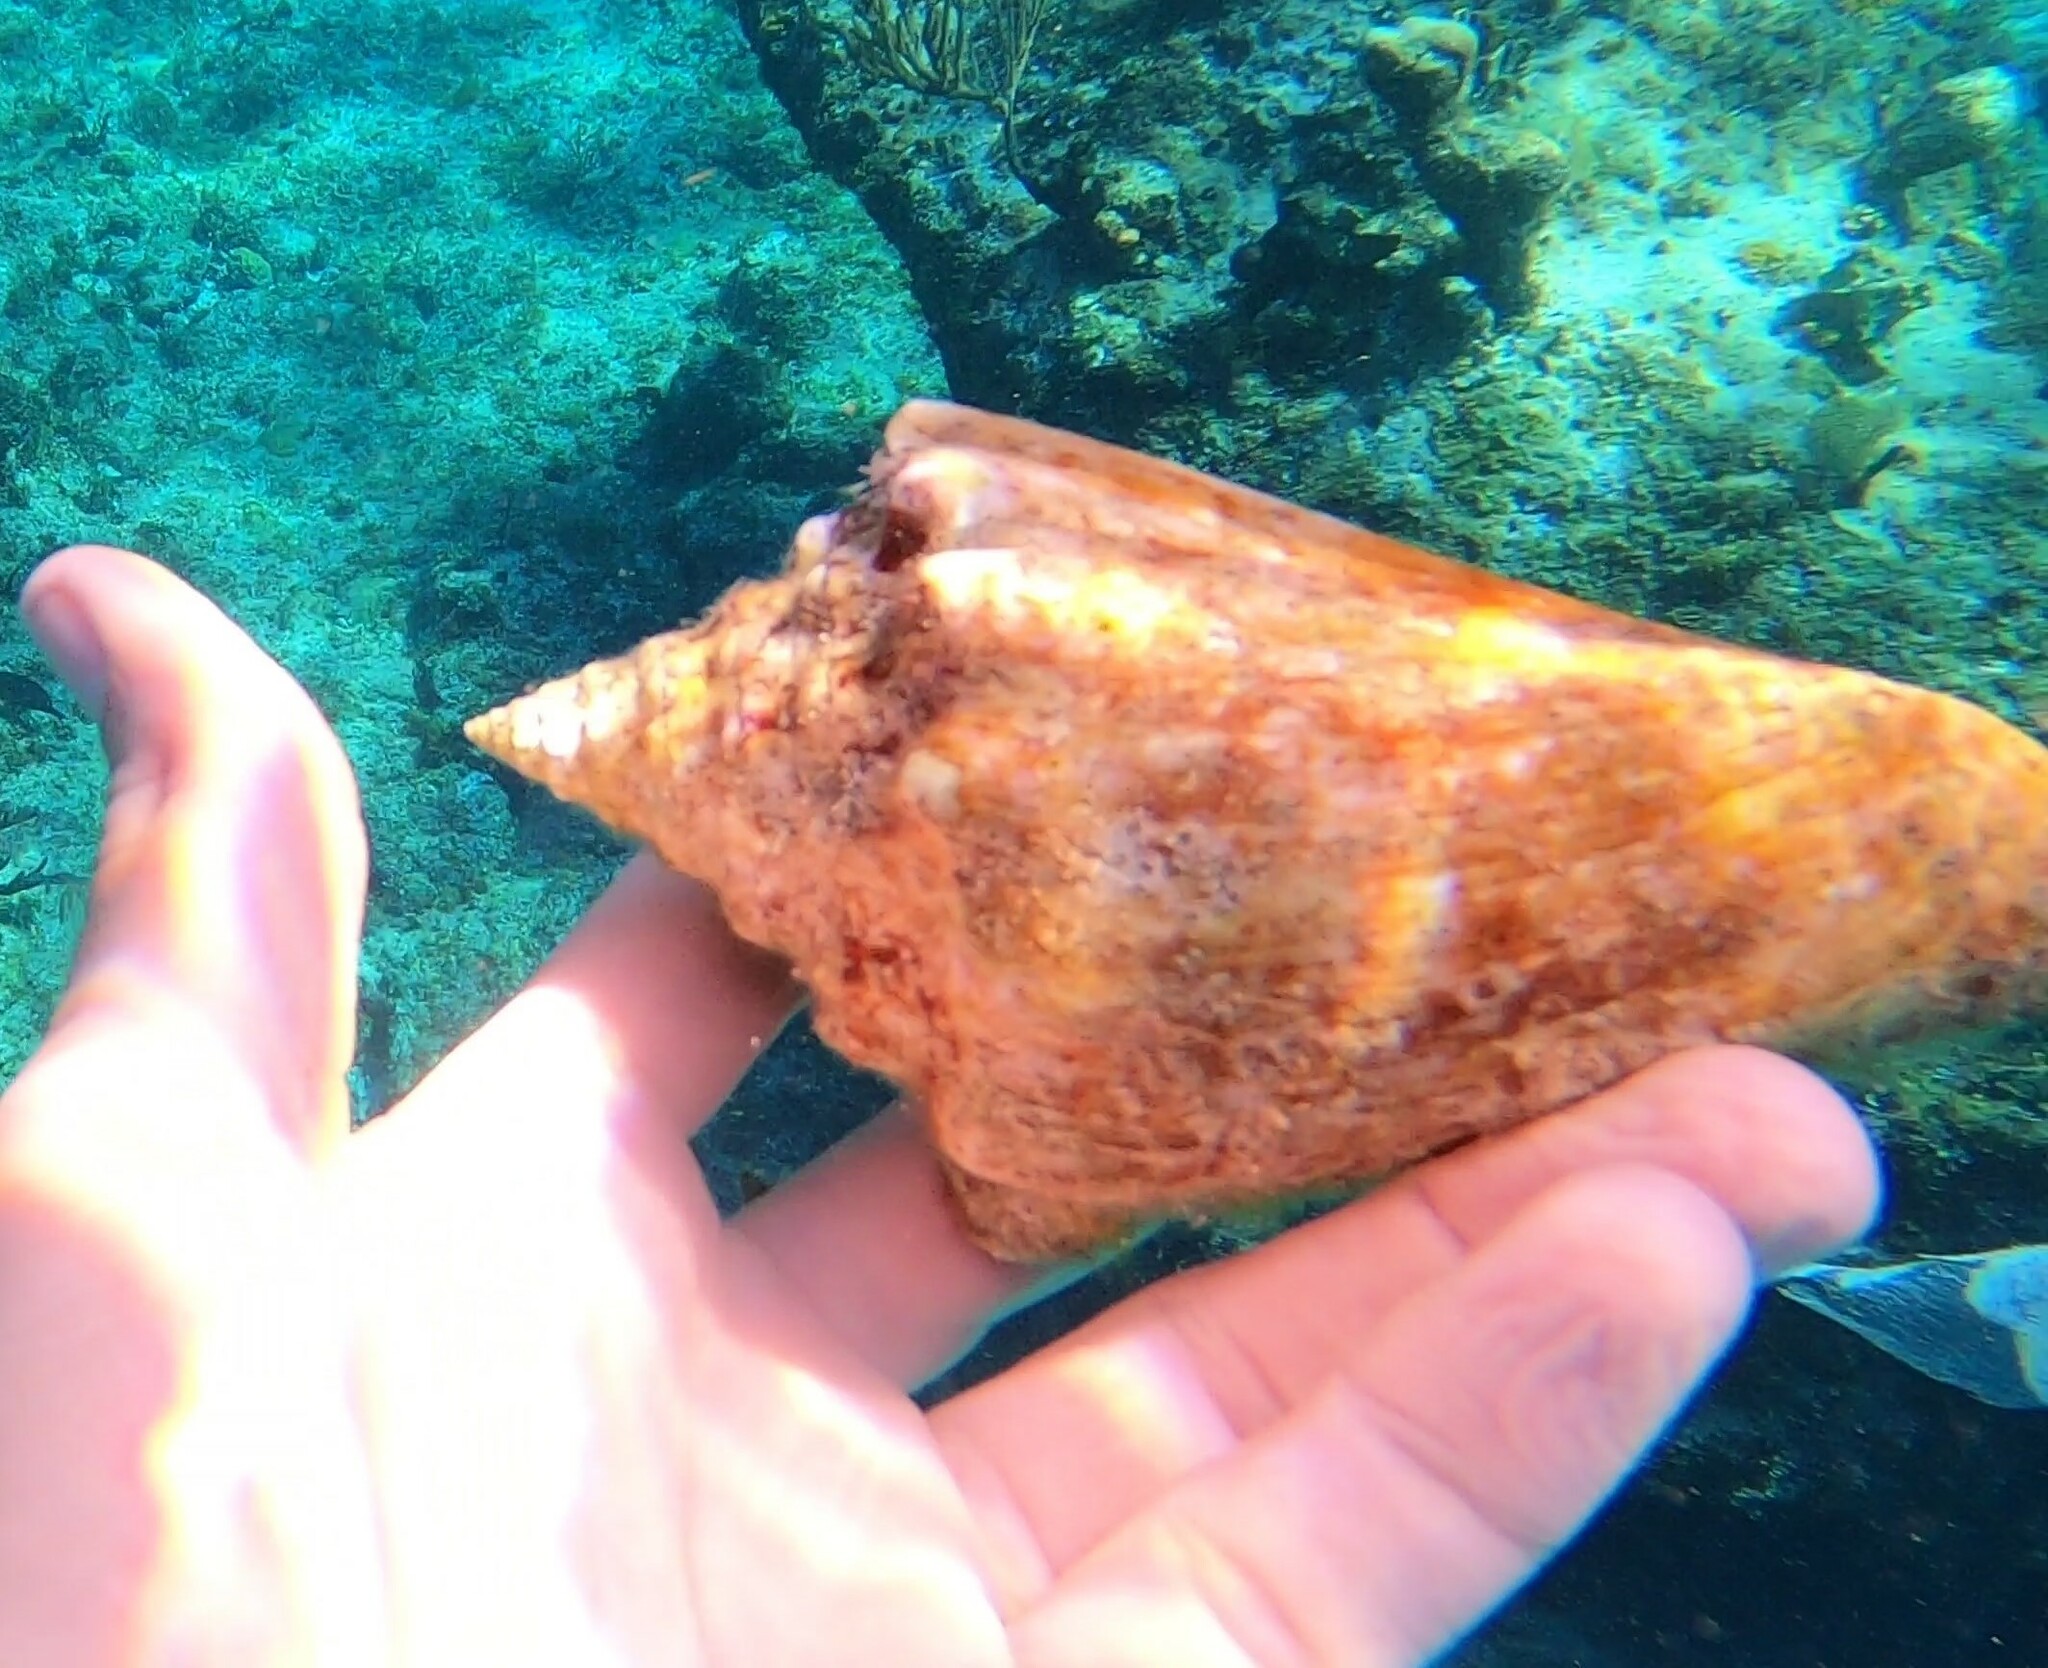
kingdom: Animalia
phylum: Mollusca
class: Gastropoda
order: Littorinimorpha
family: Strombidae
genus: Macrostrombus
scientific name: Macrostrombus costatus
